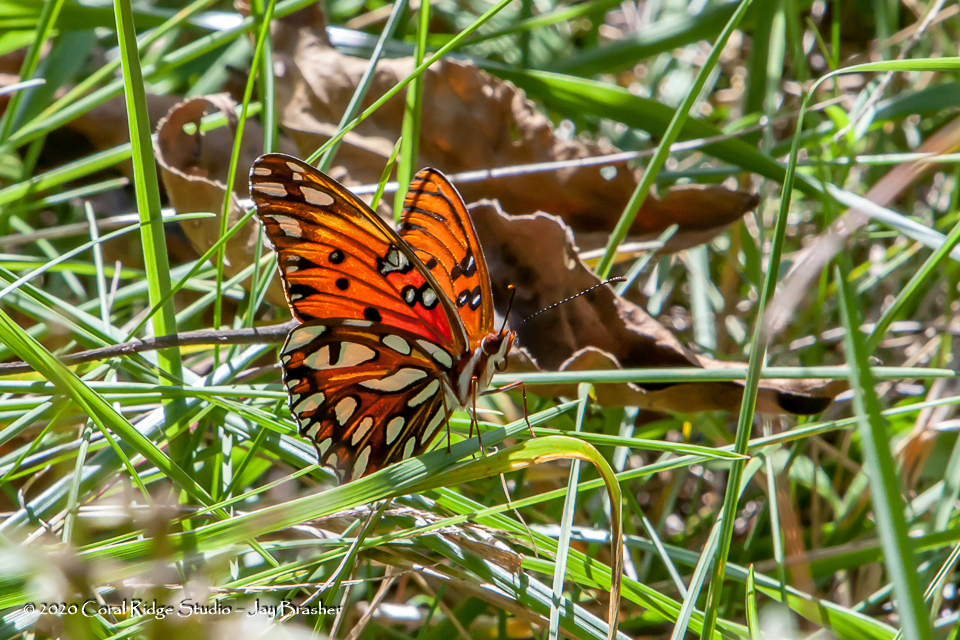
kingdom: Animalia
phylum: Arthropoda
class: Insecta
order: Lepidoptera
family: Nymphalidae
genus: Dione
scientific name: Dione vanillae
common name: Gulf fritillary
